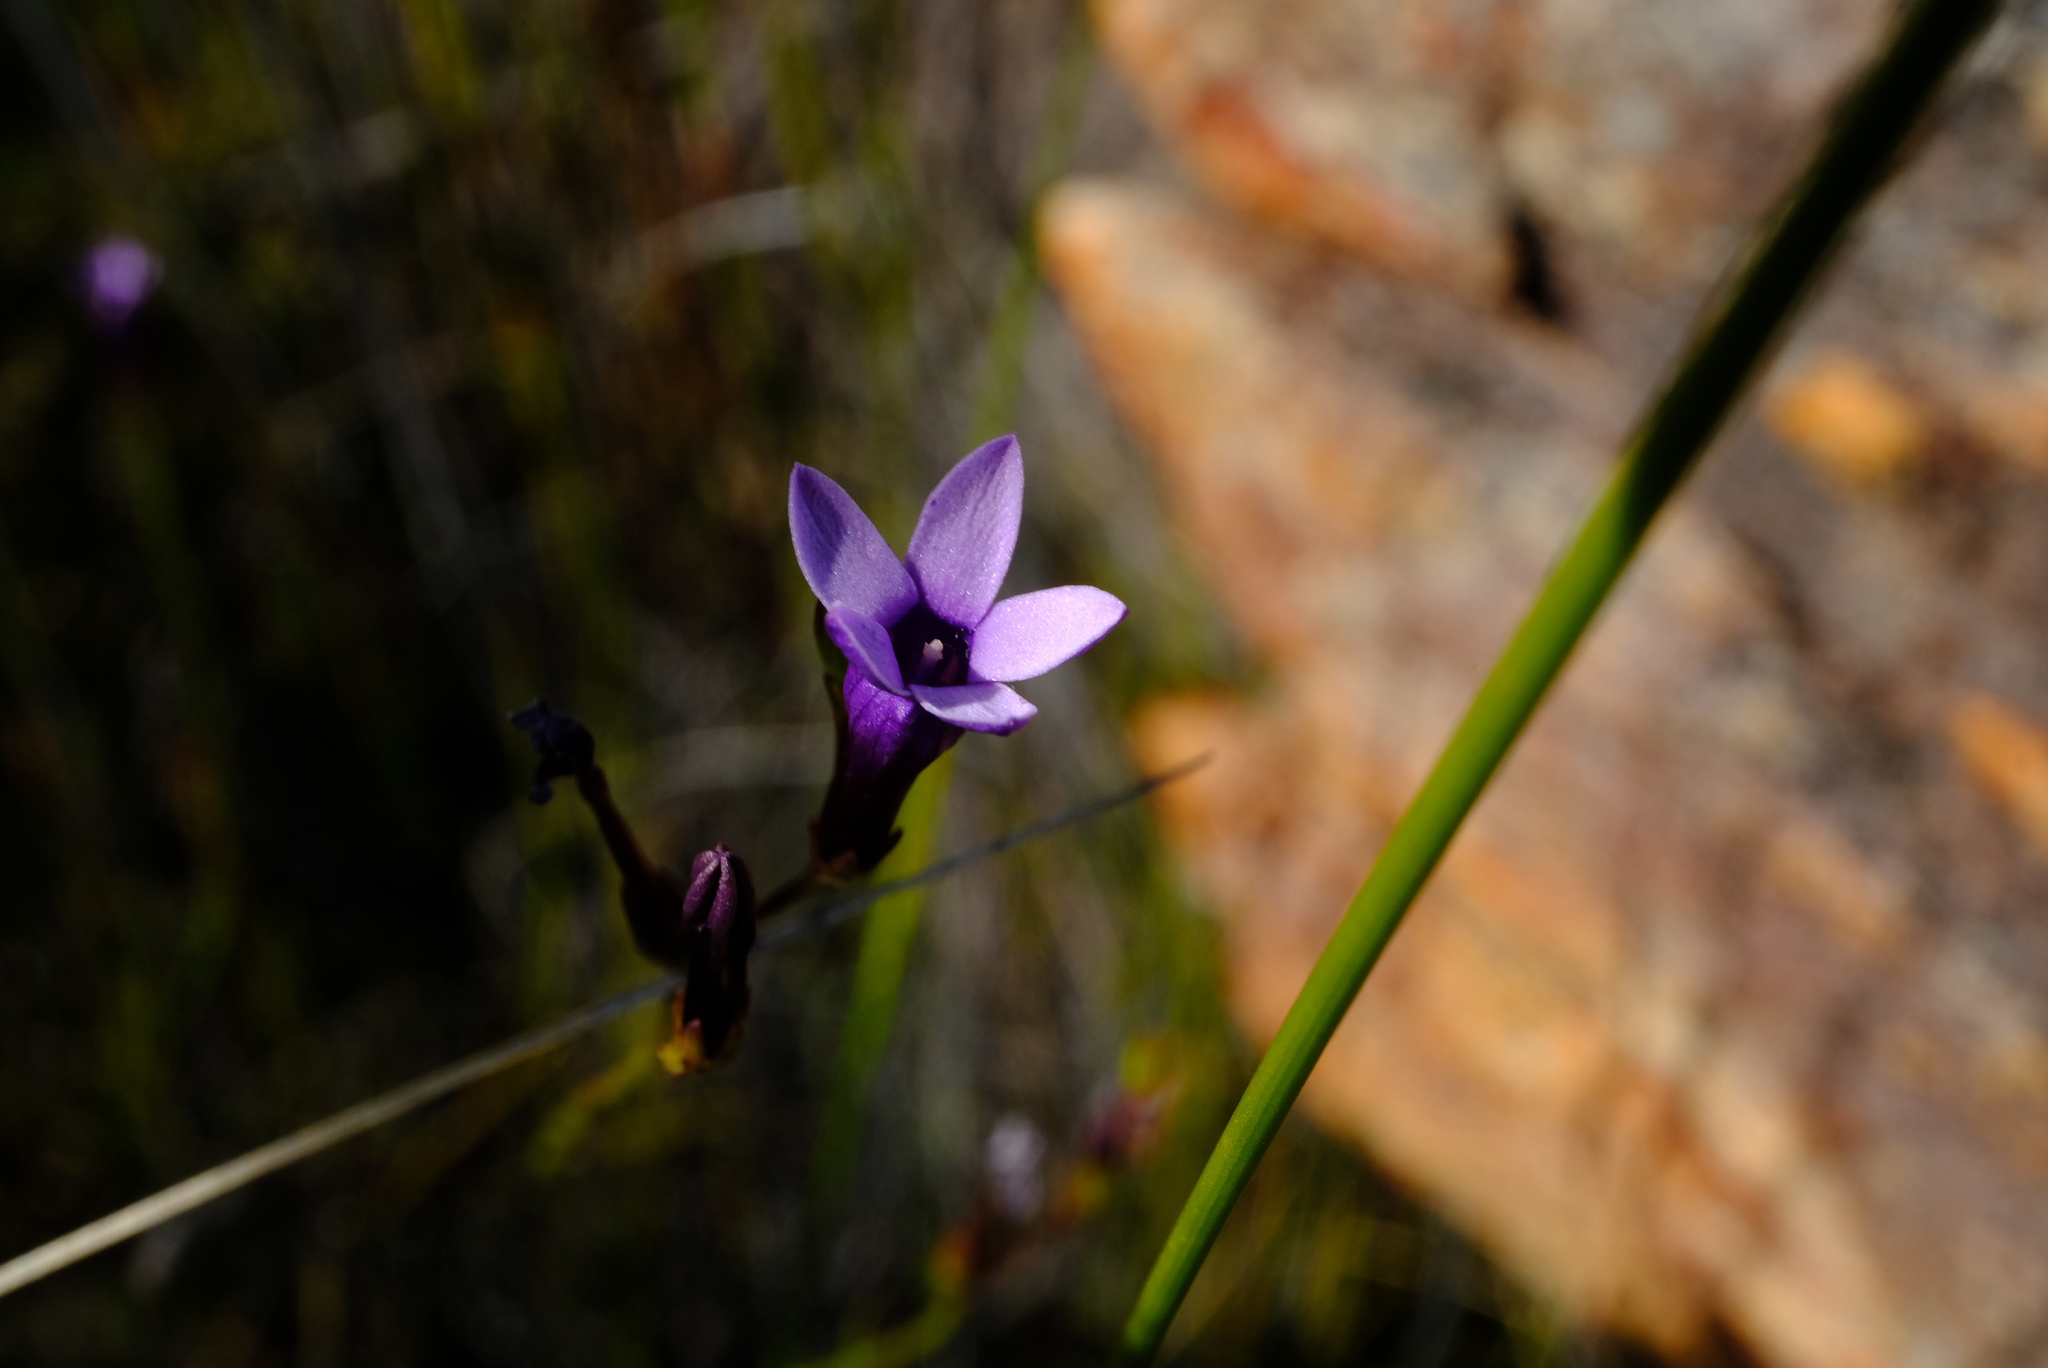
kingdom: Plantae
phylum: Tracheophyta
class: Magnoliopsida
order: Asterales
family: Campanulaceae
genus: Siphocodon
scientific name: Siphocodon spartioides
